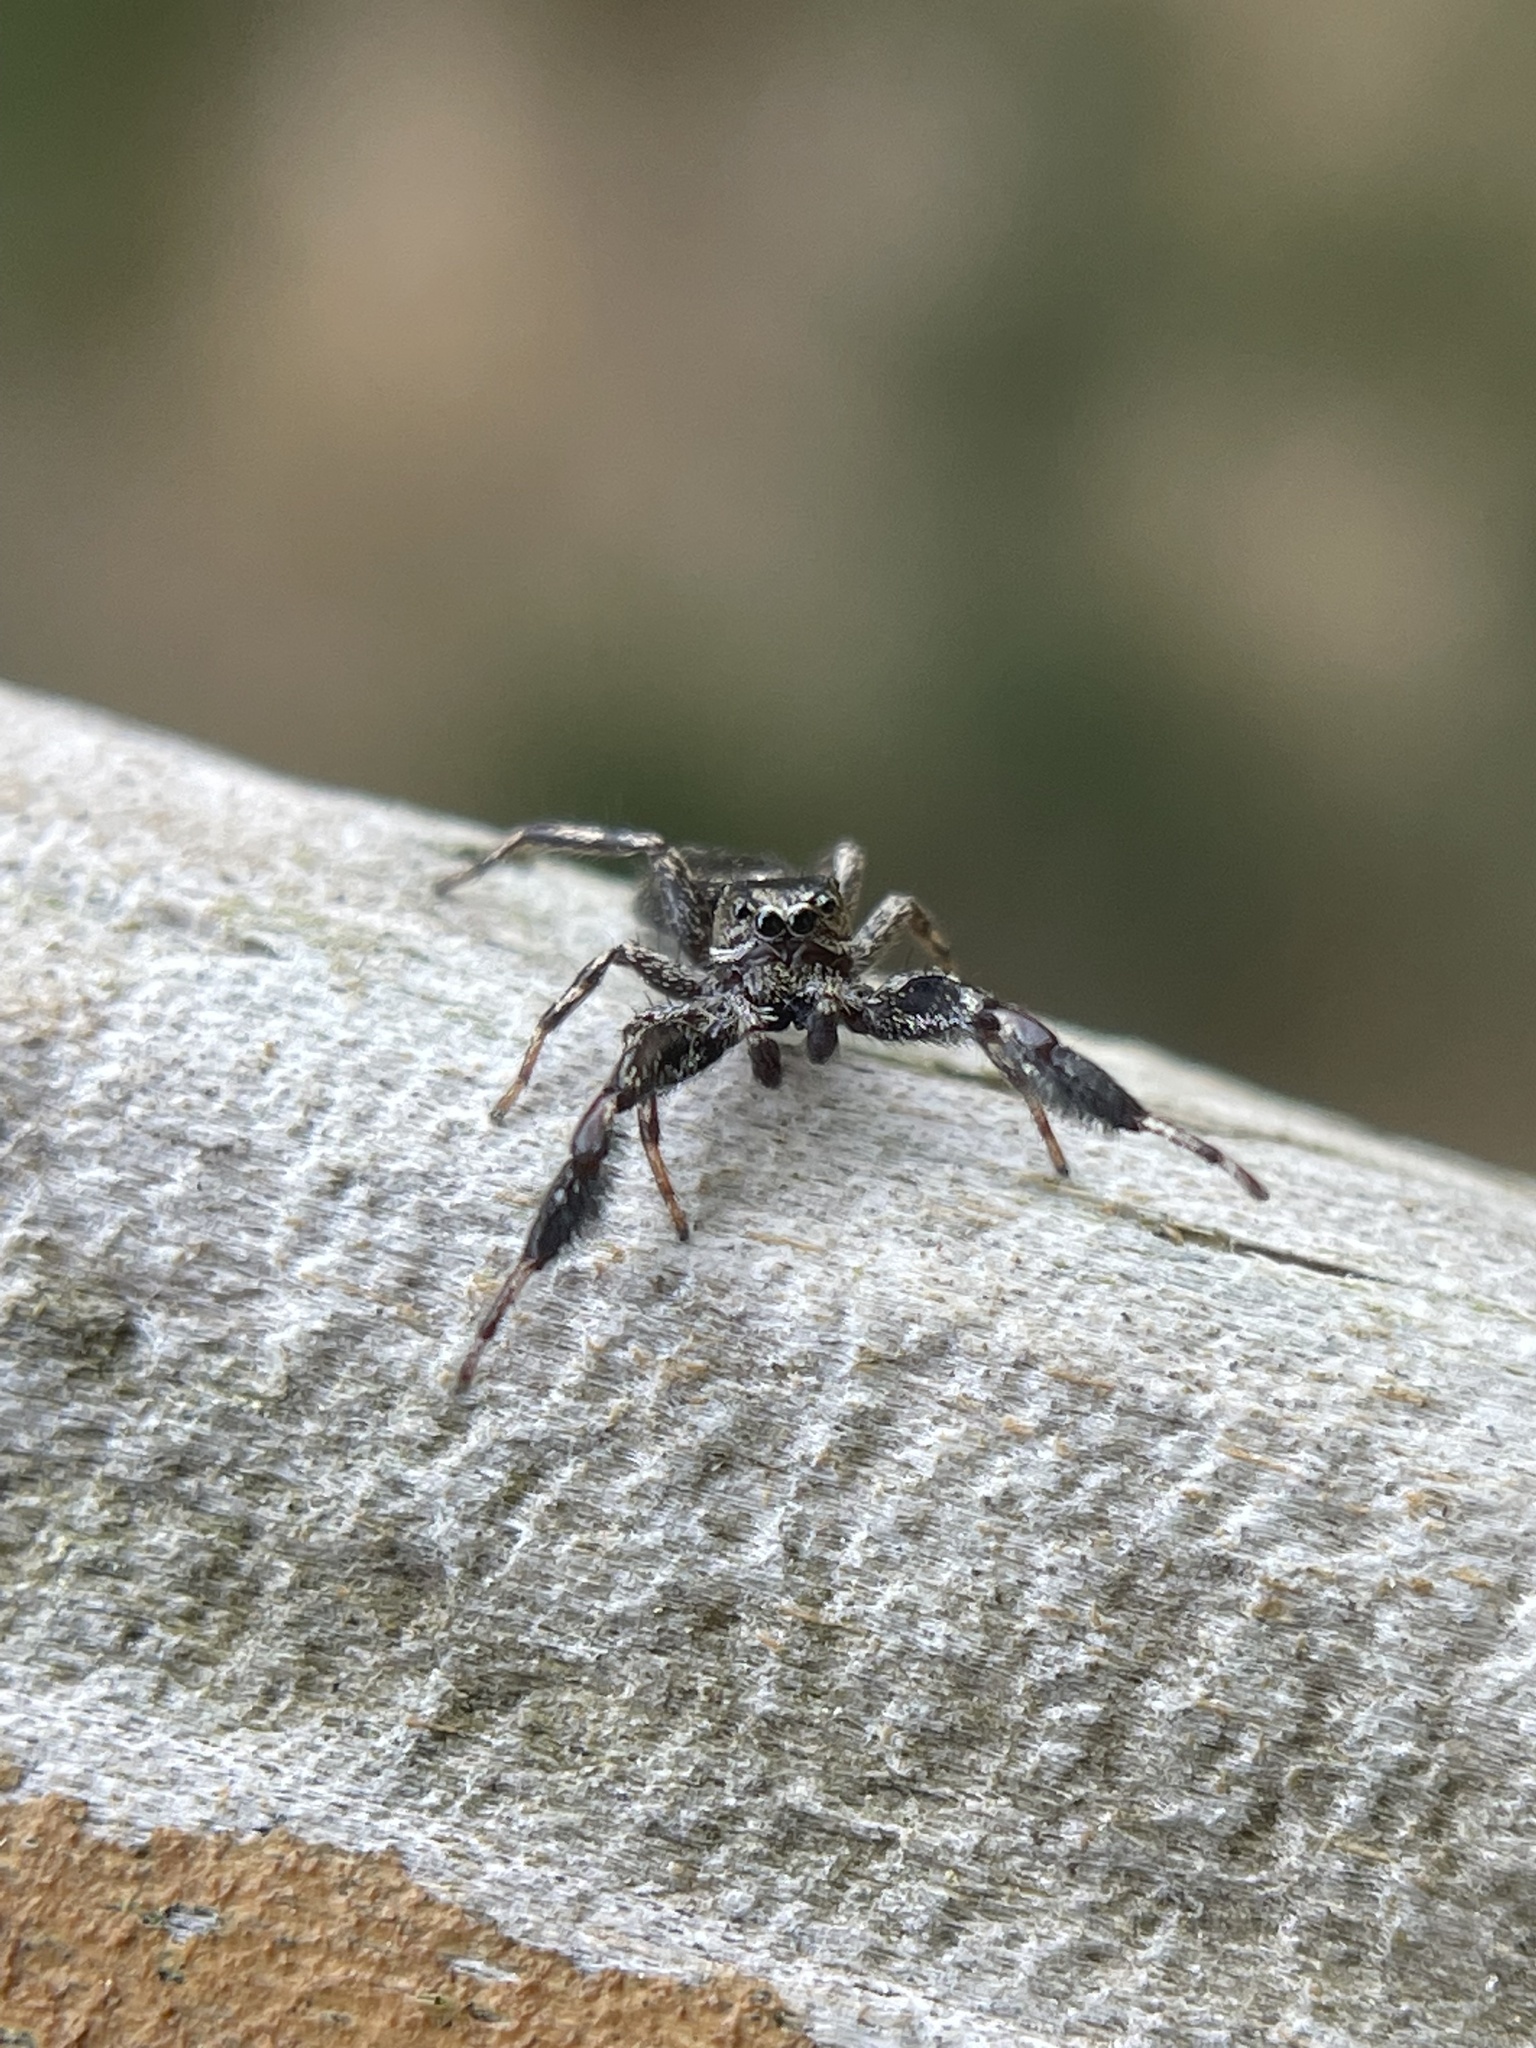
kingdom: Animalia
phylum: Arthropoda
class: Arachnida
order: Araneae
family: Salticidae
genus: Tutelina
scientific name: Tutelina harti
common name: Hart's jumping spider
